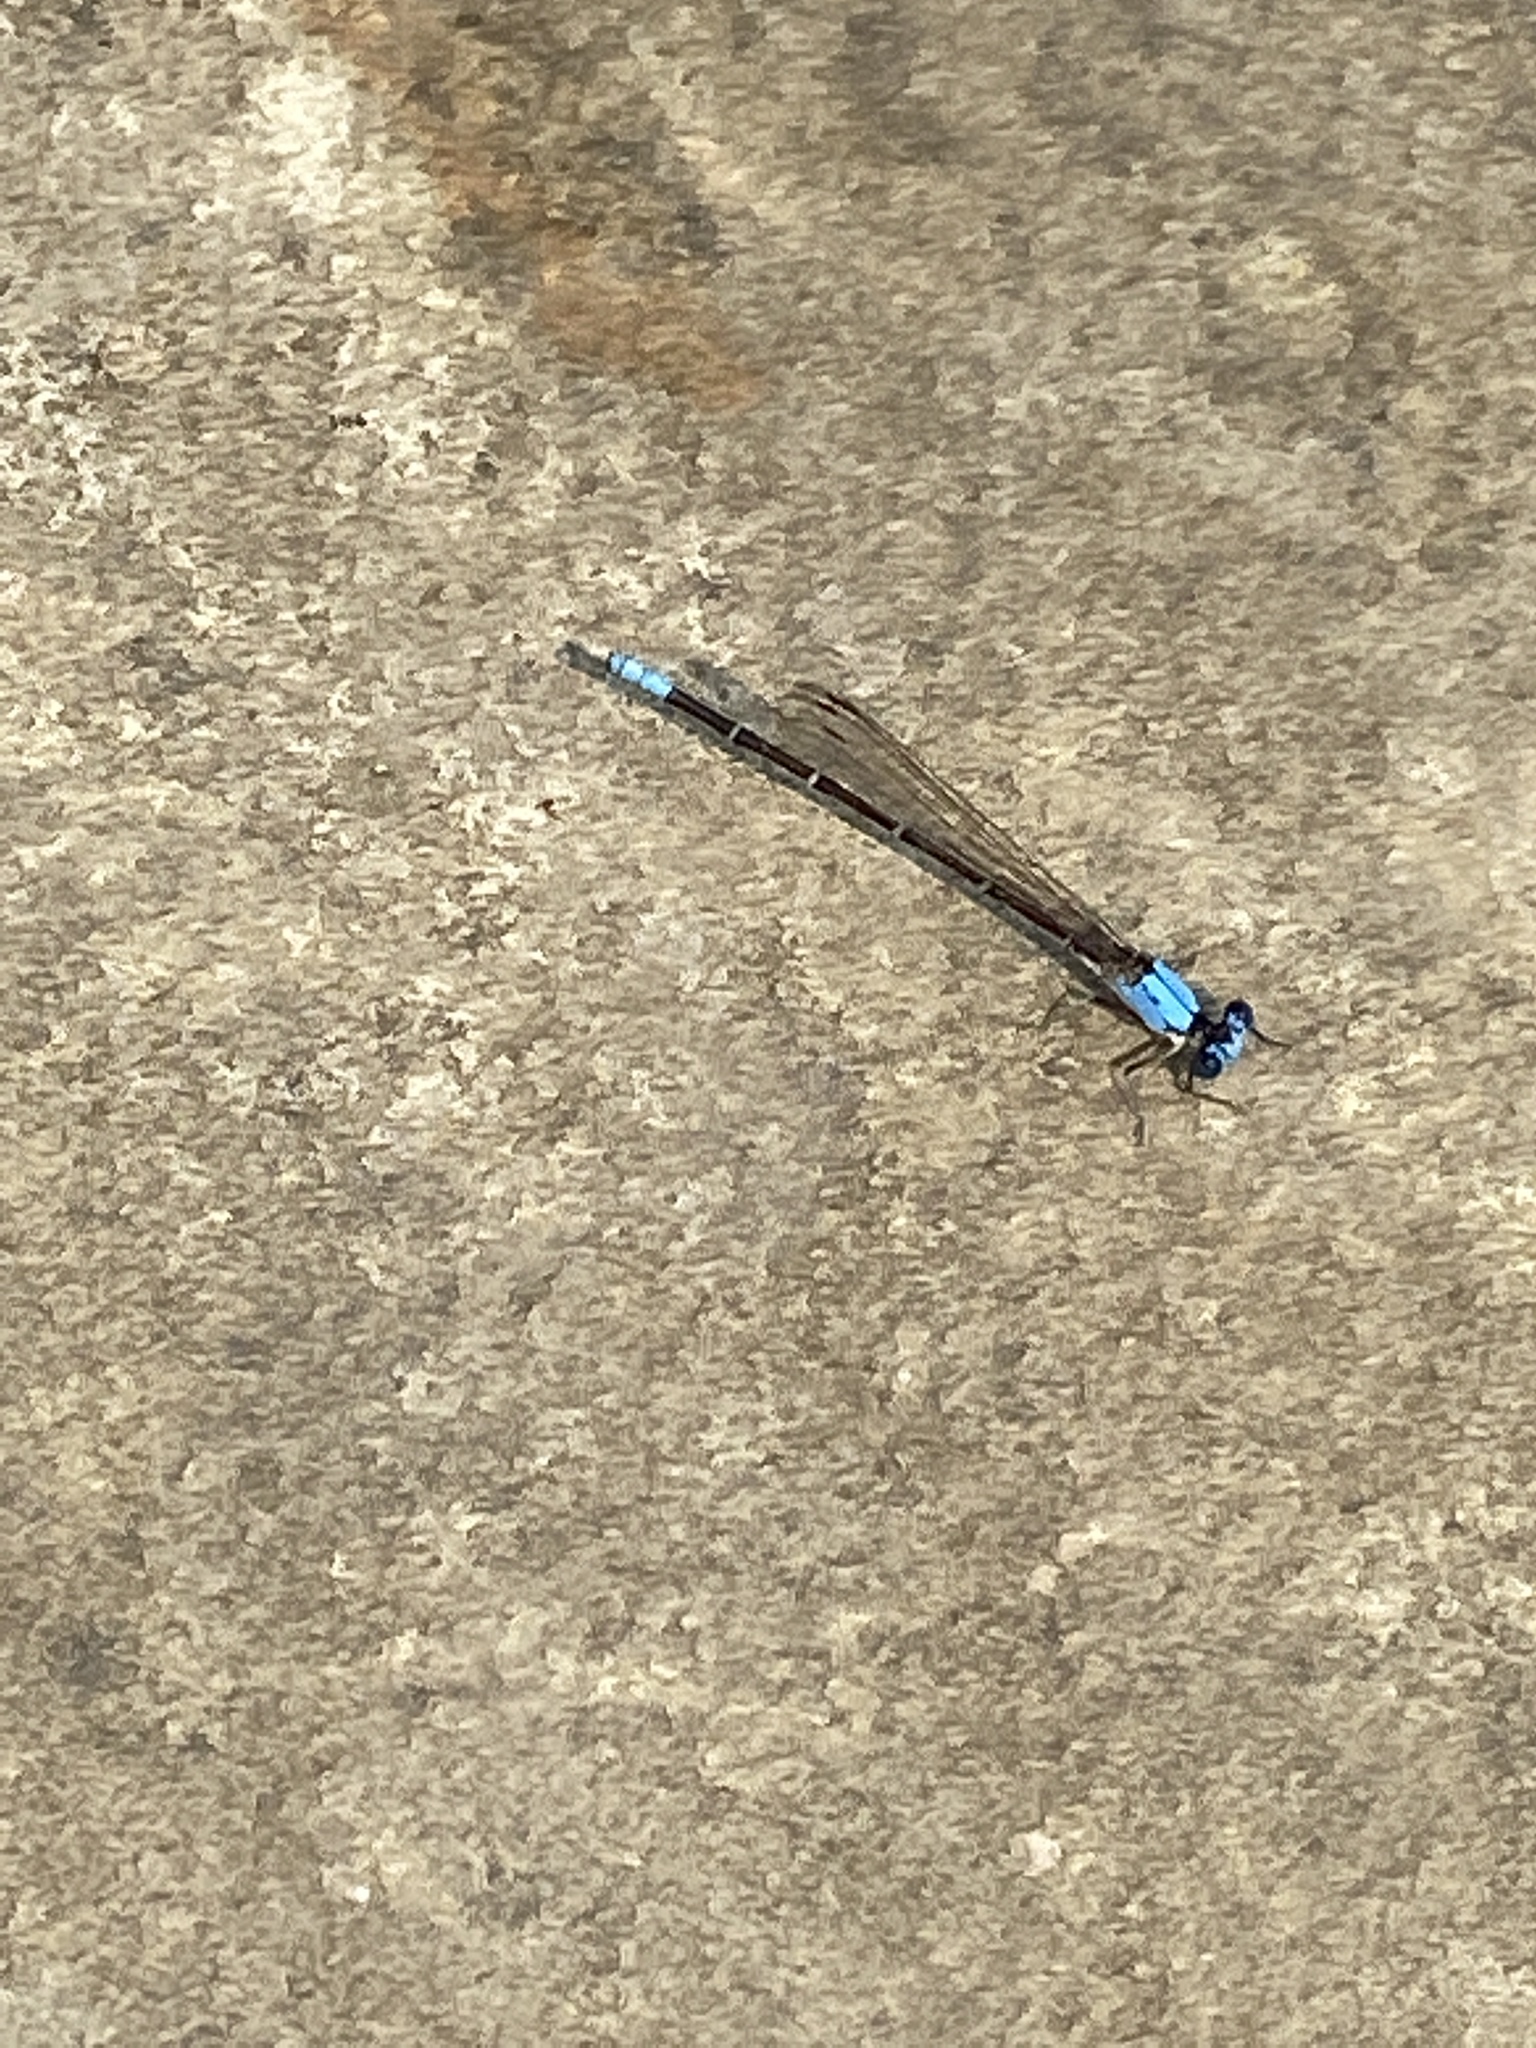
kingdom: Animalia
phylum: Arthropoda
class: Insecta
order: Odonata
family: Coenagrionidae
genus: Argia
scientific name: Argia apicalis
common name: Blue-fronted dancer
